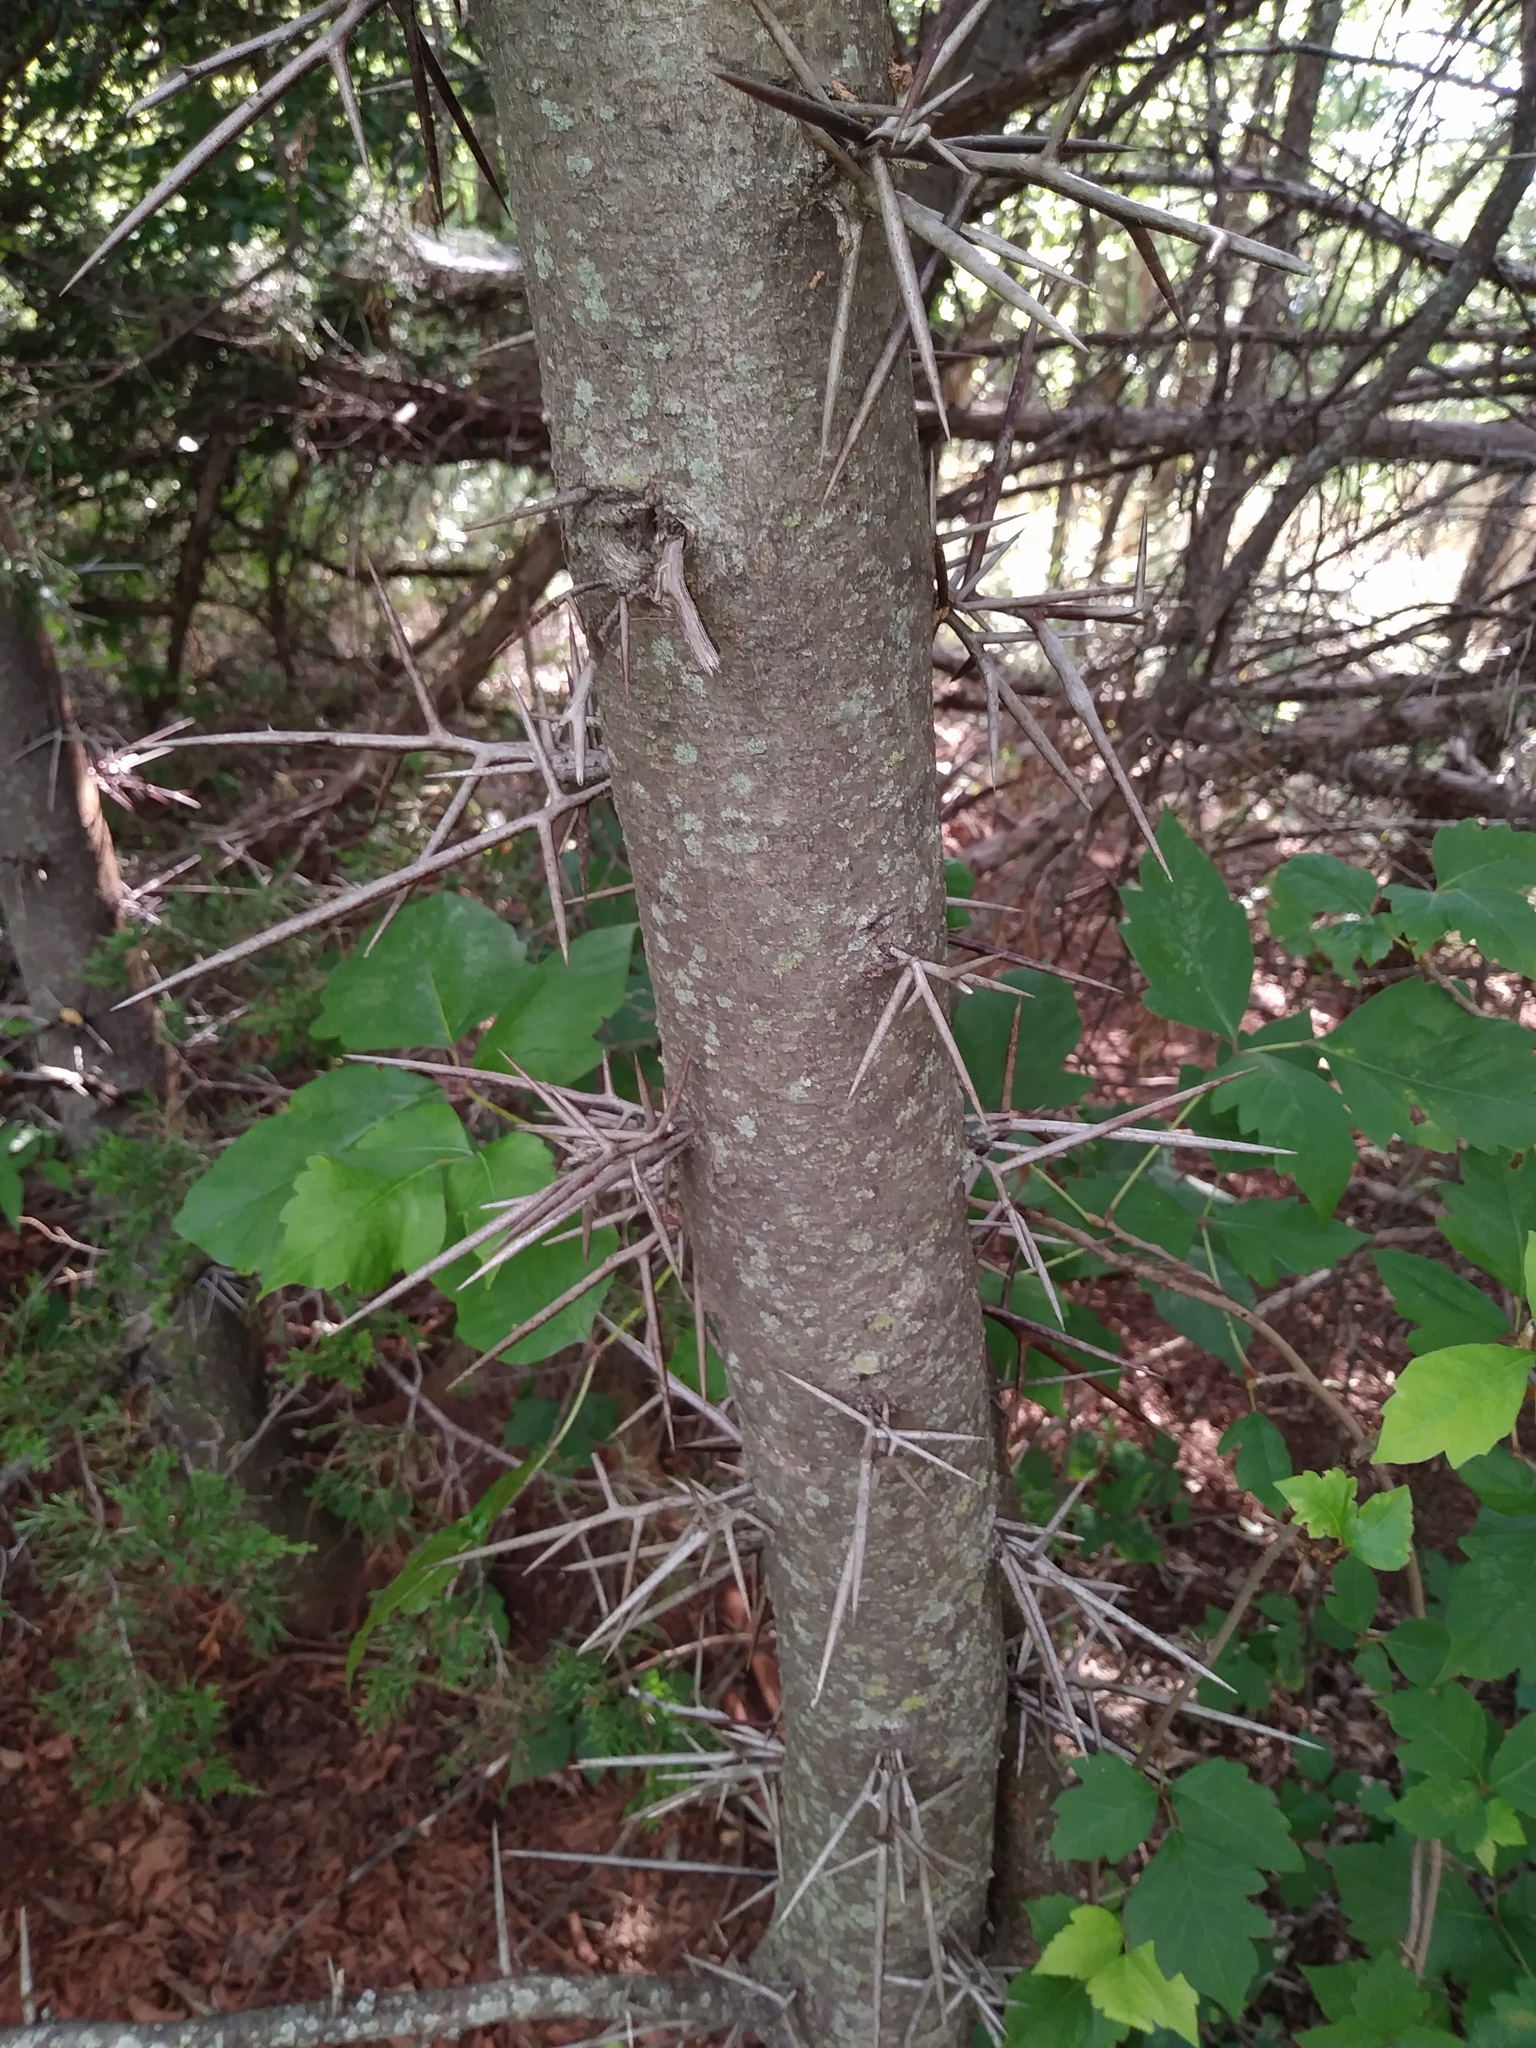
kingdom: Plantae
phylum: Tracheophyta
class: Magnoliopsida
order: Fabales
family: Fabaceae
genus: Gleditsia
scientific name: Gleditsia triacanthos
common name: Common honeylocust
